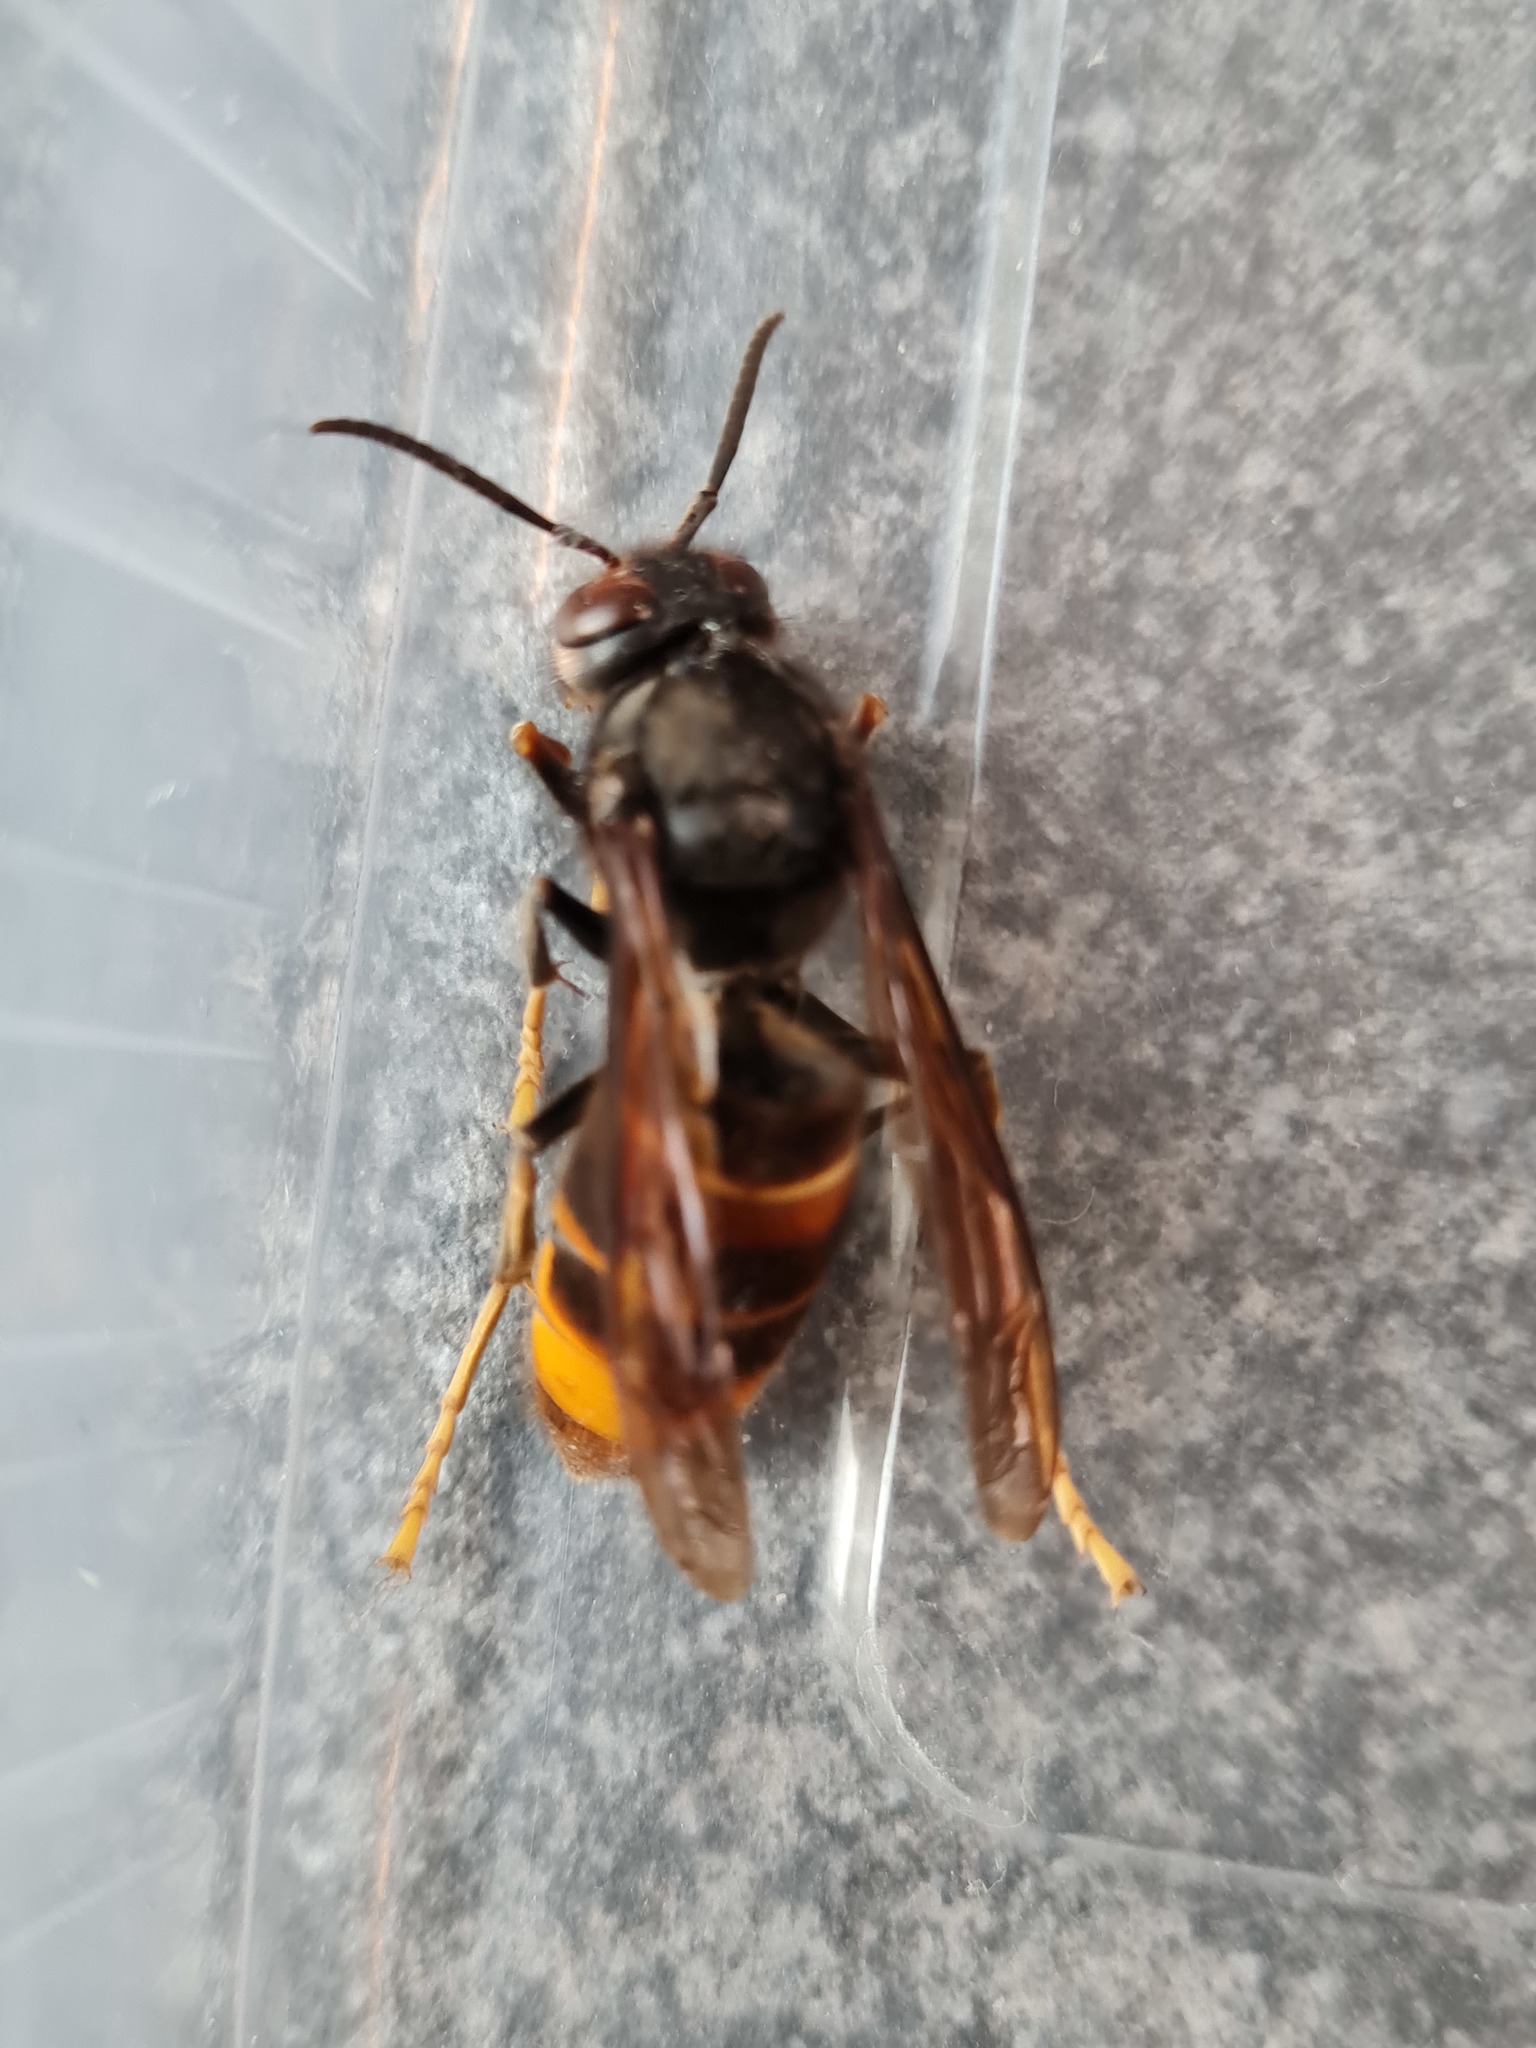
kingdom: Animalia
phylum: Arthropoda
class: Insecta
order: Hymenoptera
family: Vespidae
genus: Vespa
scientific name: Vespa velutina
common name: Asian hornet
